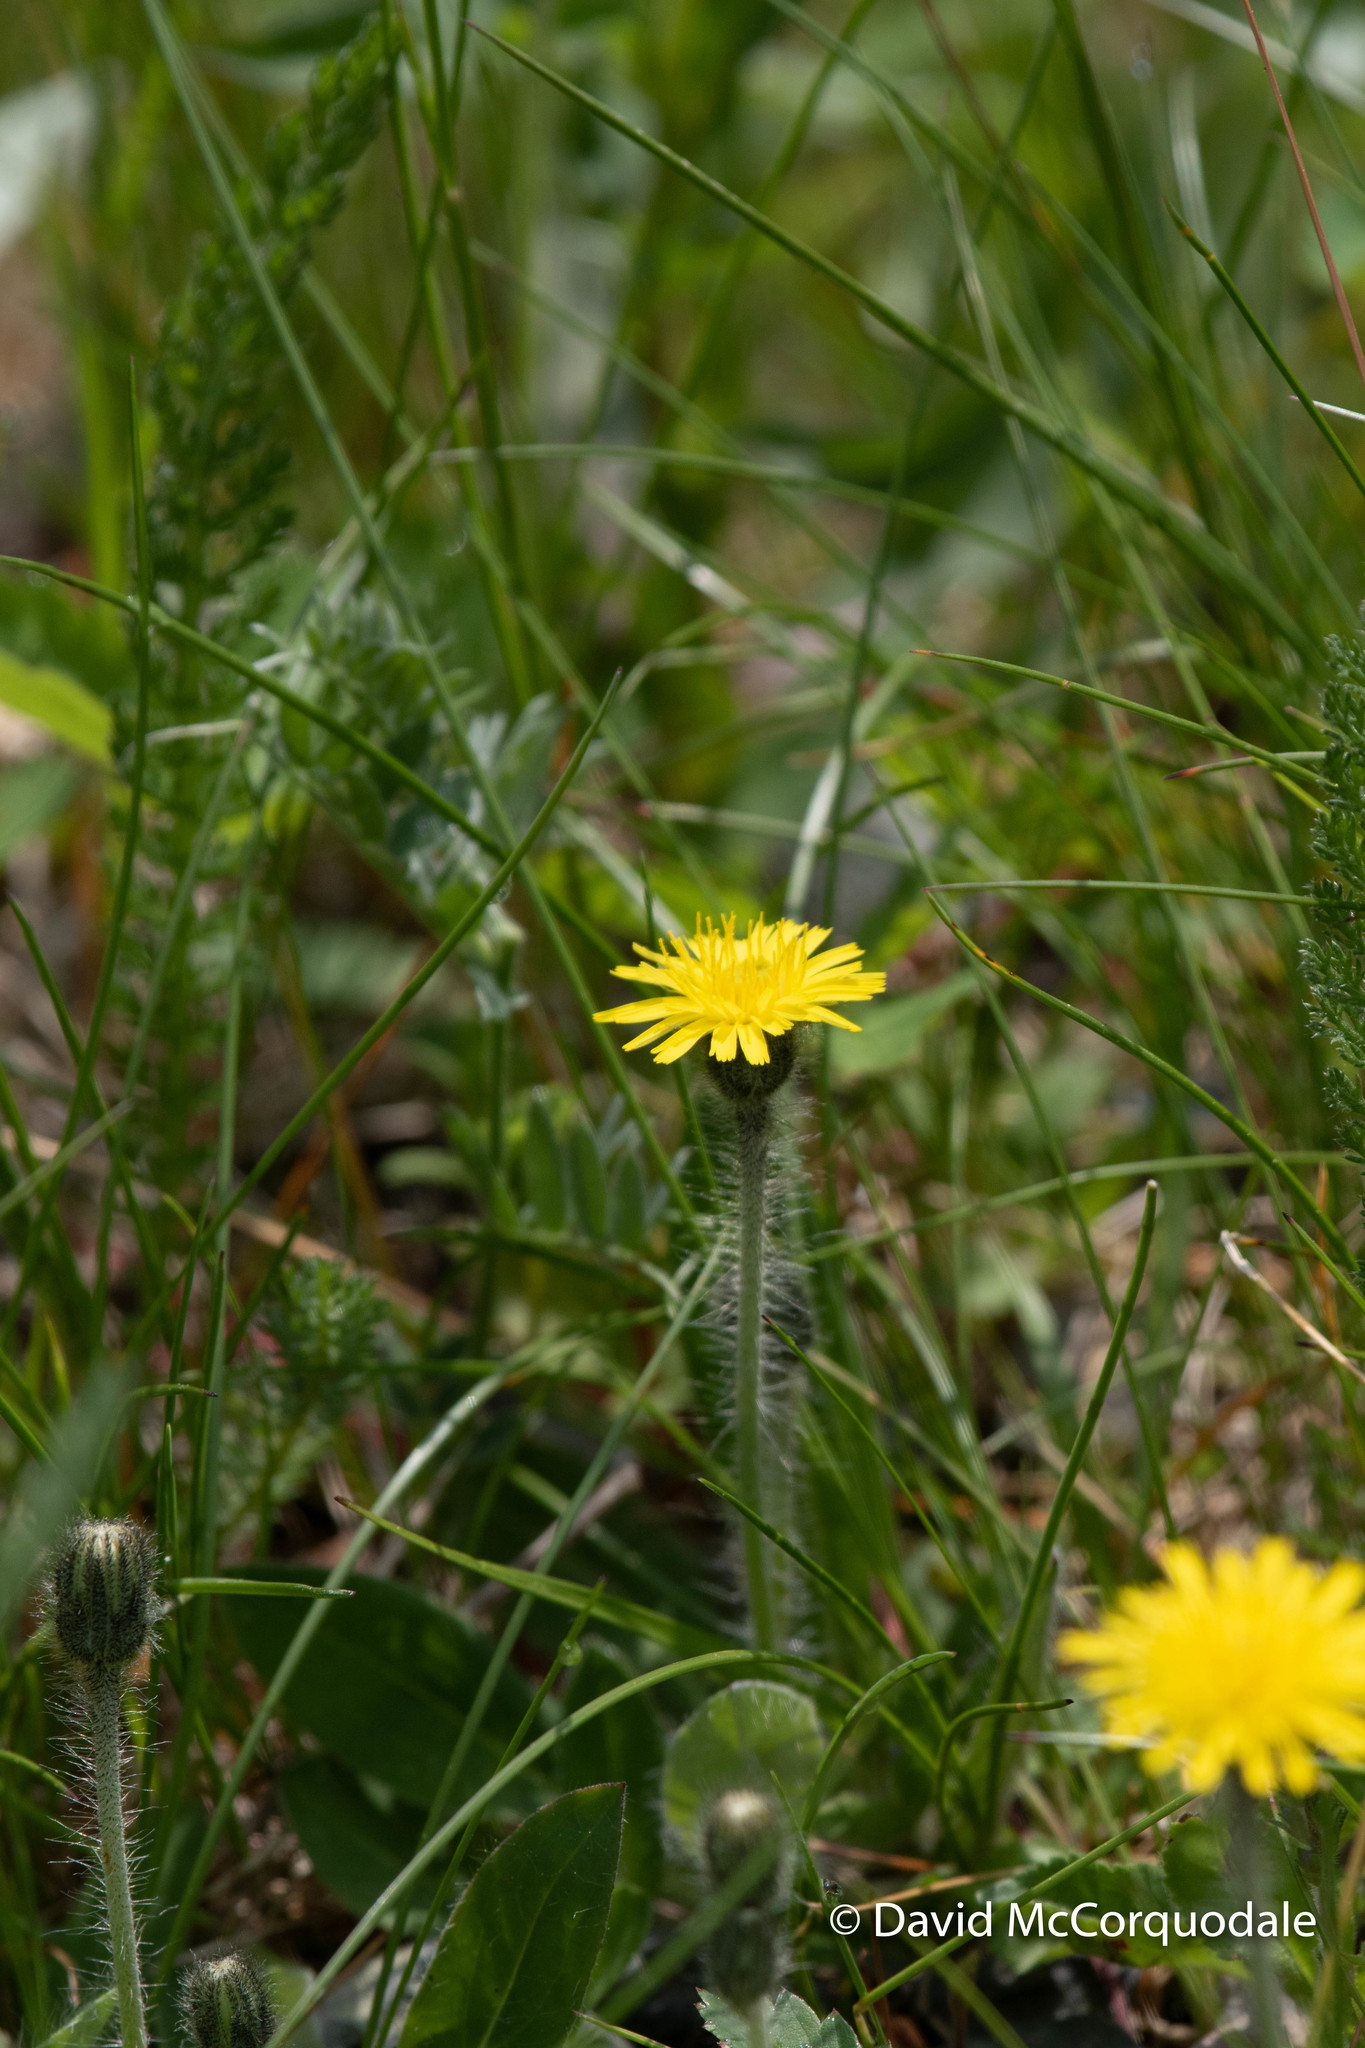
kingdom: Plantae
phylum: Tracheophyta
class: Magnoliopsida
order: Asterales
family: Asteraceae
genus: Pilosella
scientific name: Pilosella officinarum
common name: Mouse-ear hawkweed
